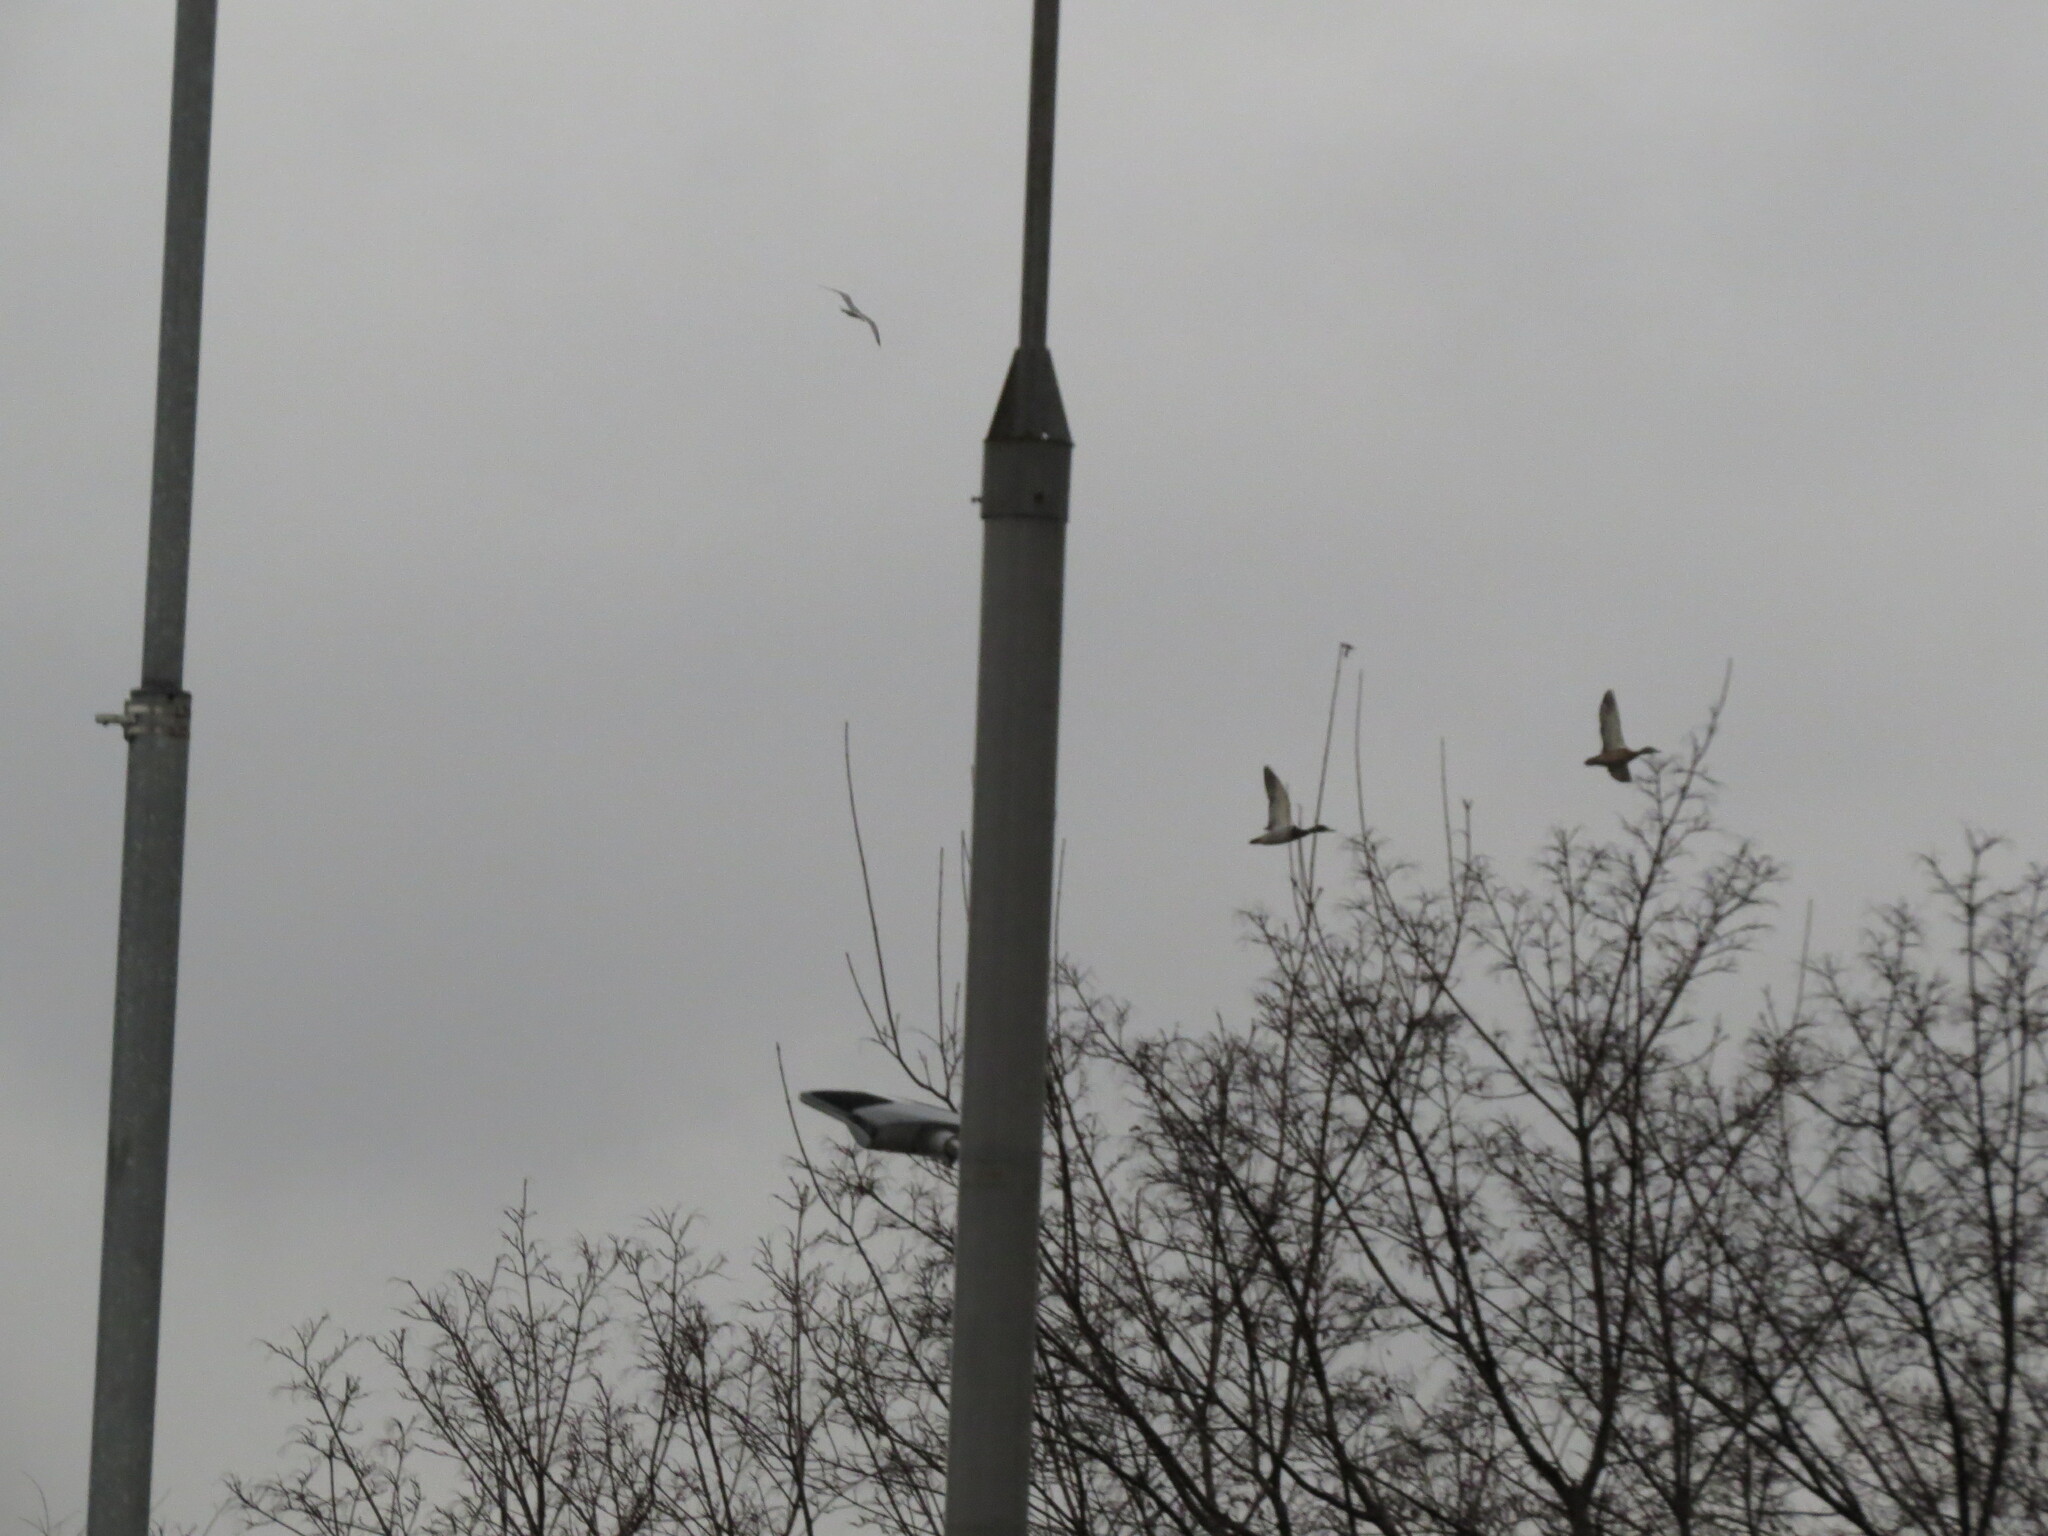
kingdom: Animalia
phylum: Chordata
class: Aves
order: Anseriformes
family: Anatidae
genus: Anas
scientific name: Anas platyrhynchos
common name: Mallard
